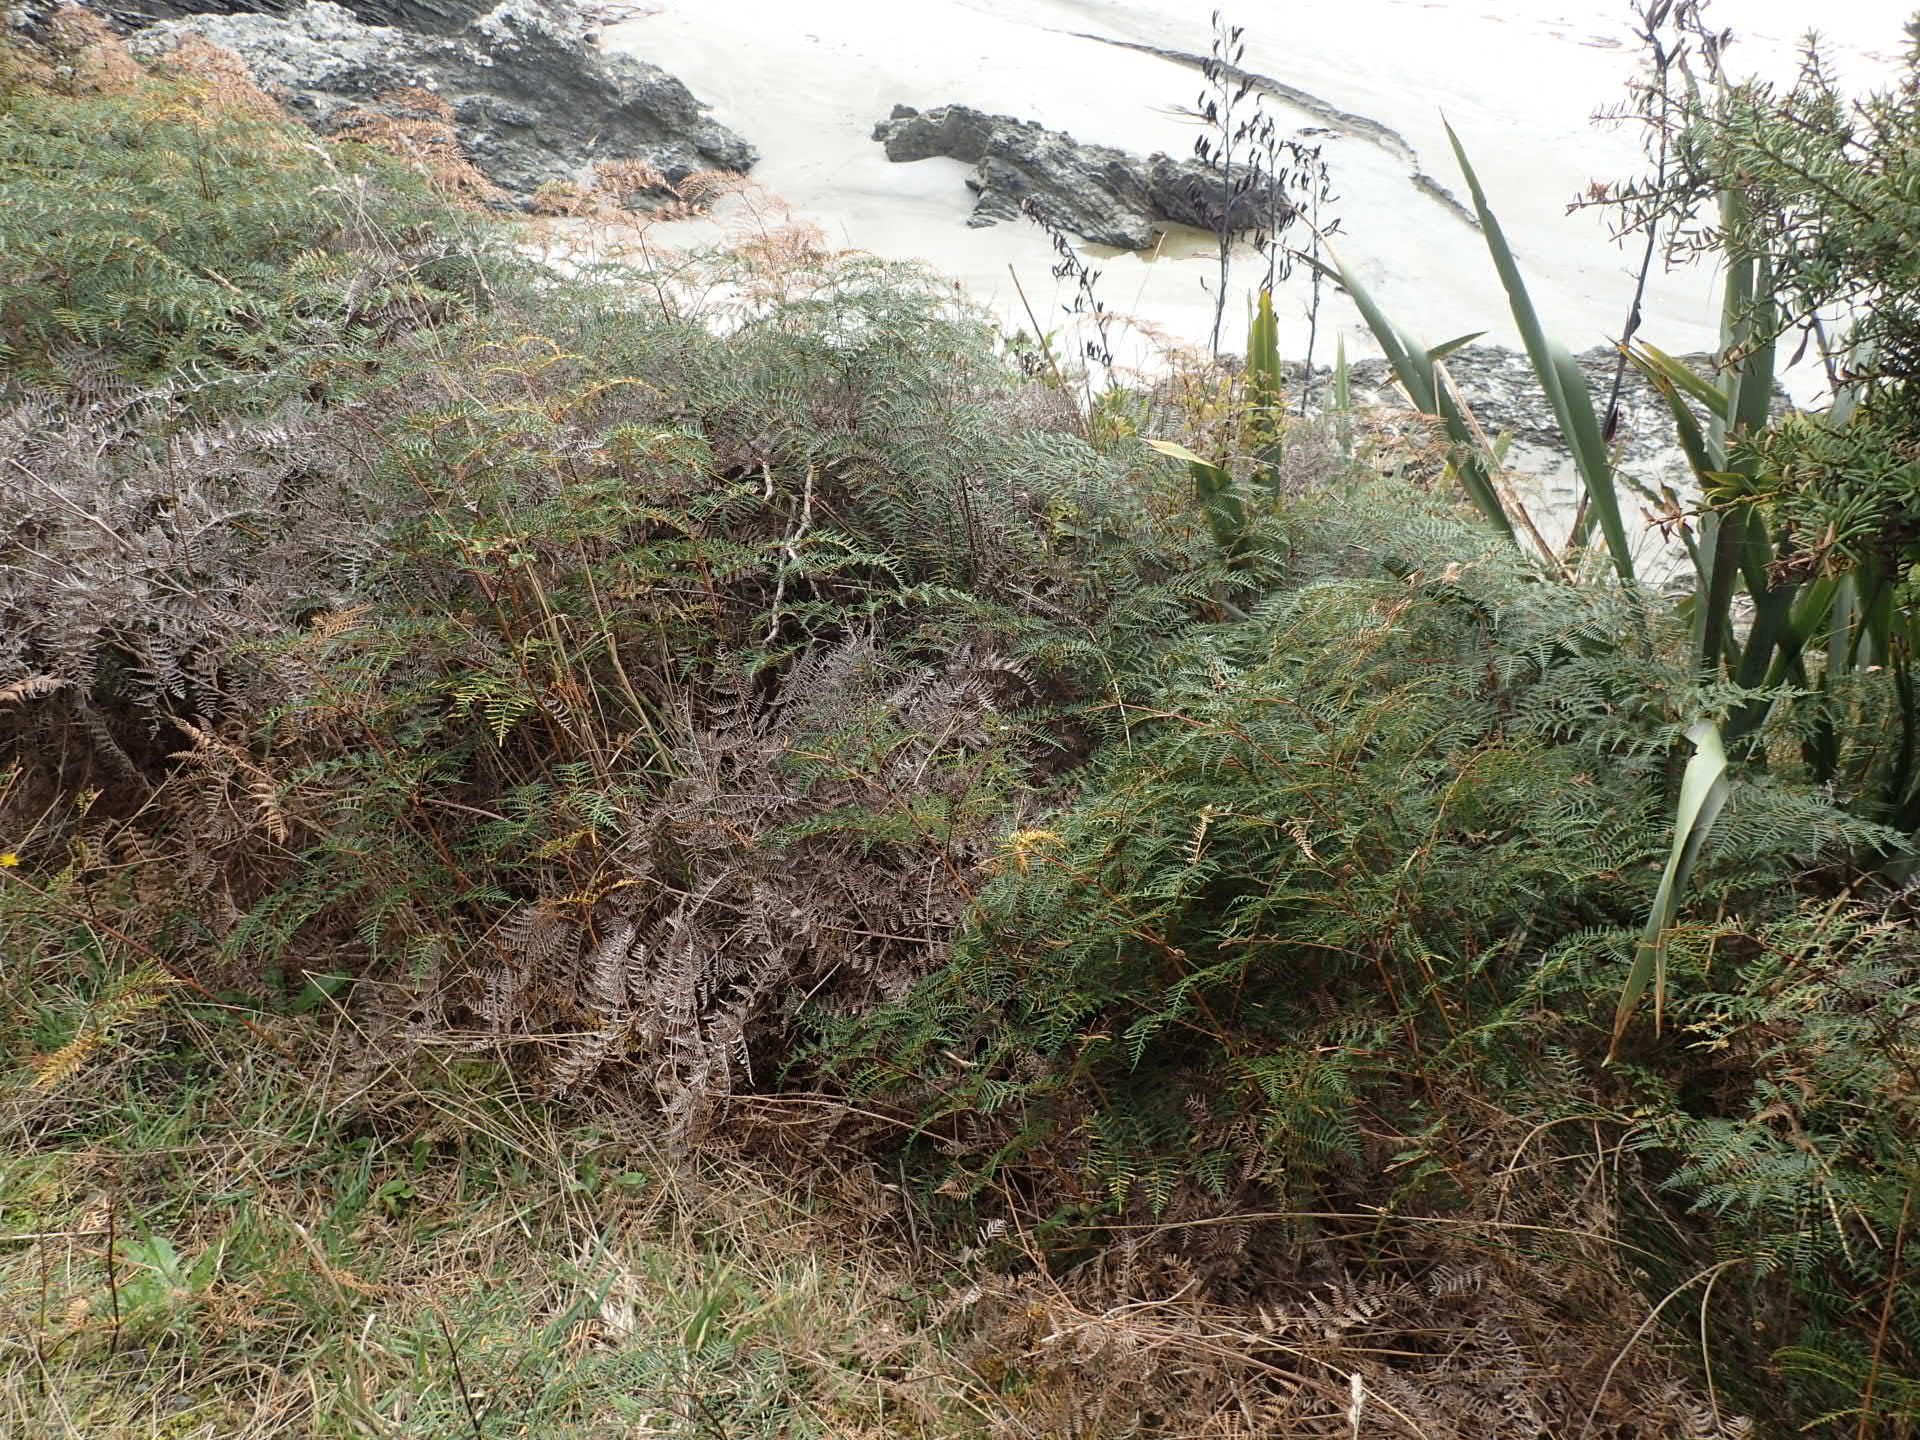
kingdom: Plantae
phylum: Tracheophyta
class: Polypodiopsida
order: Polypodiales
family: Dennstaedtiaceae
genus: Pteridium
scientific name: Pteridium esculentum
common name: Bracken fern
